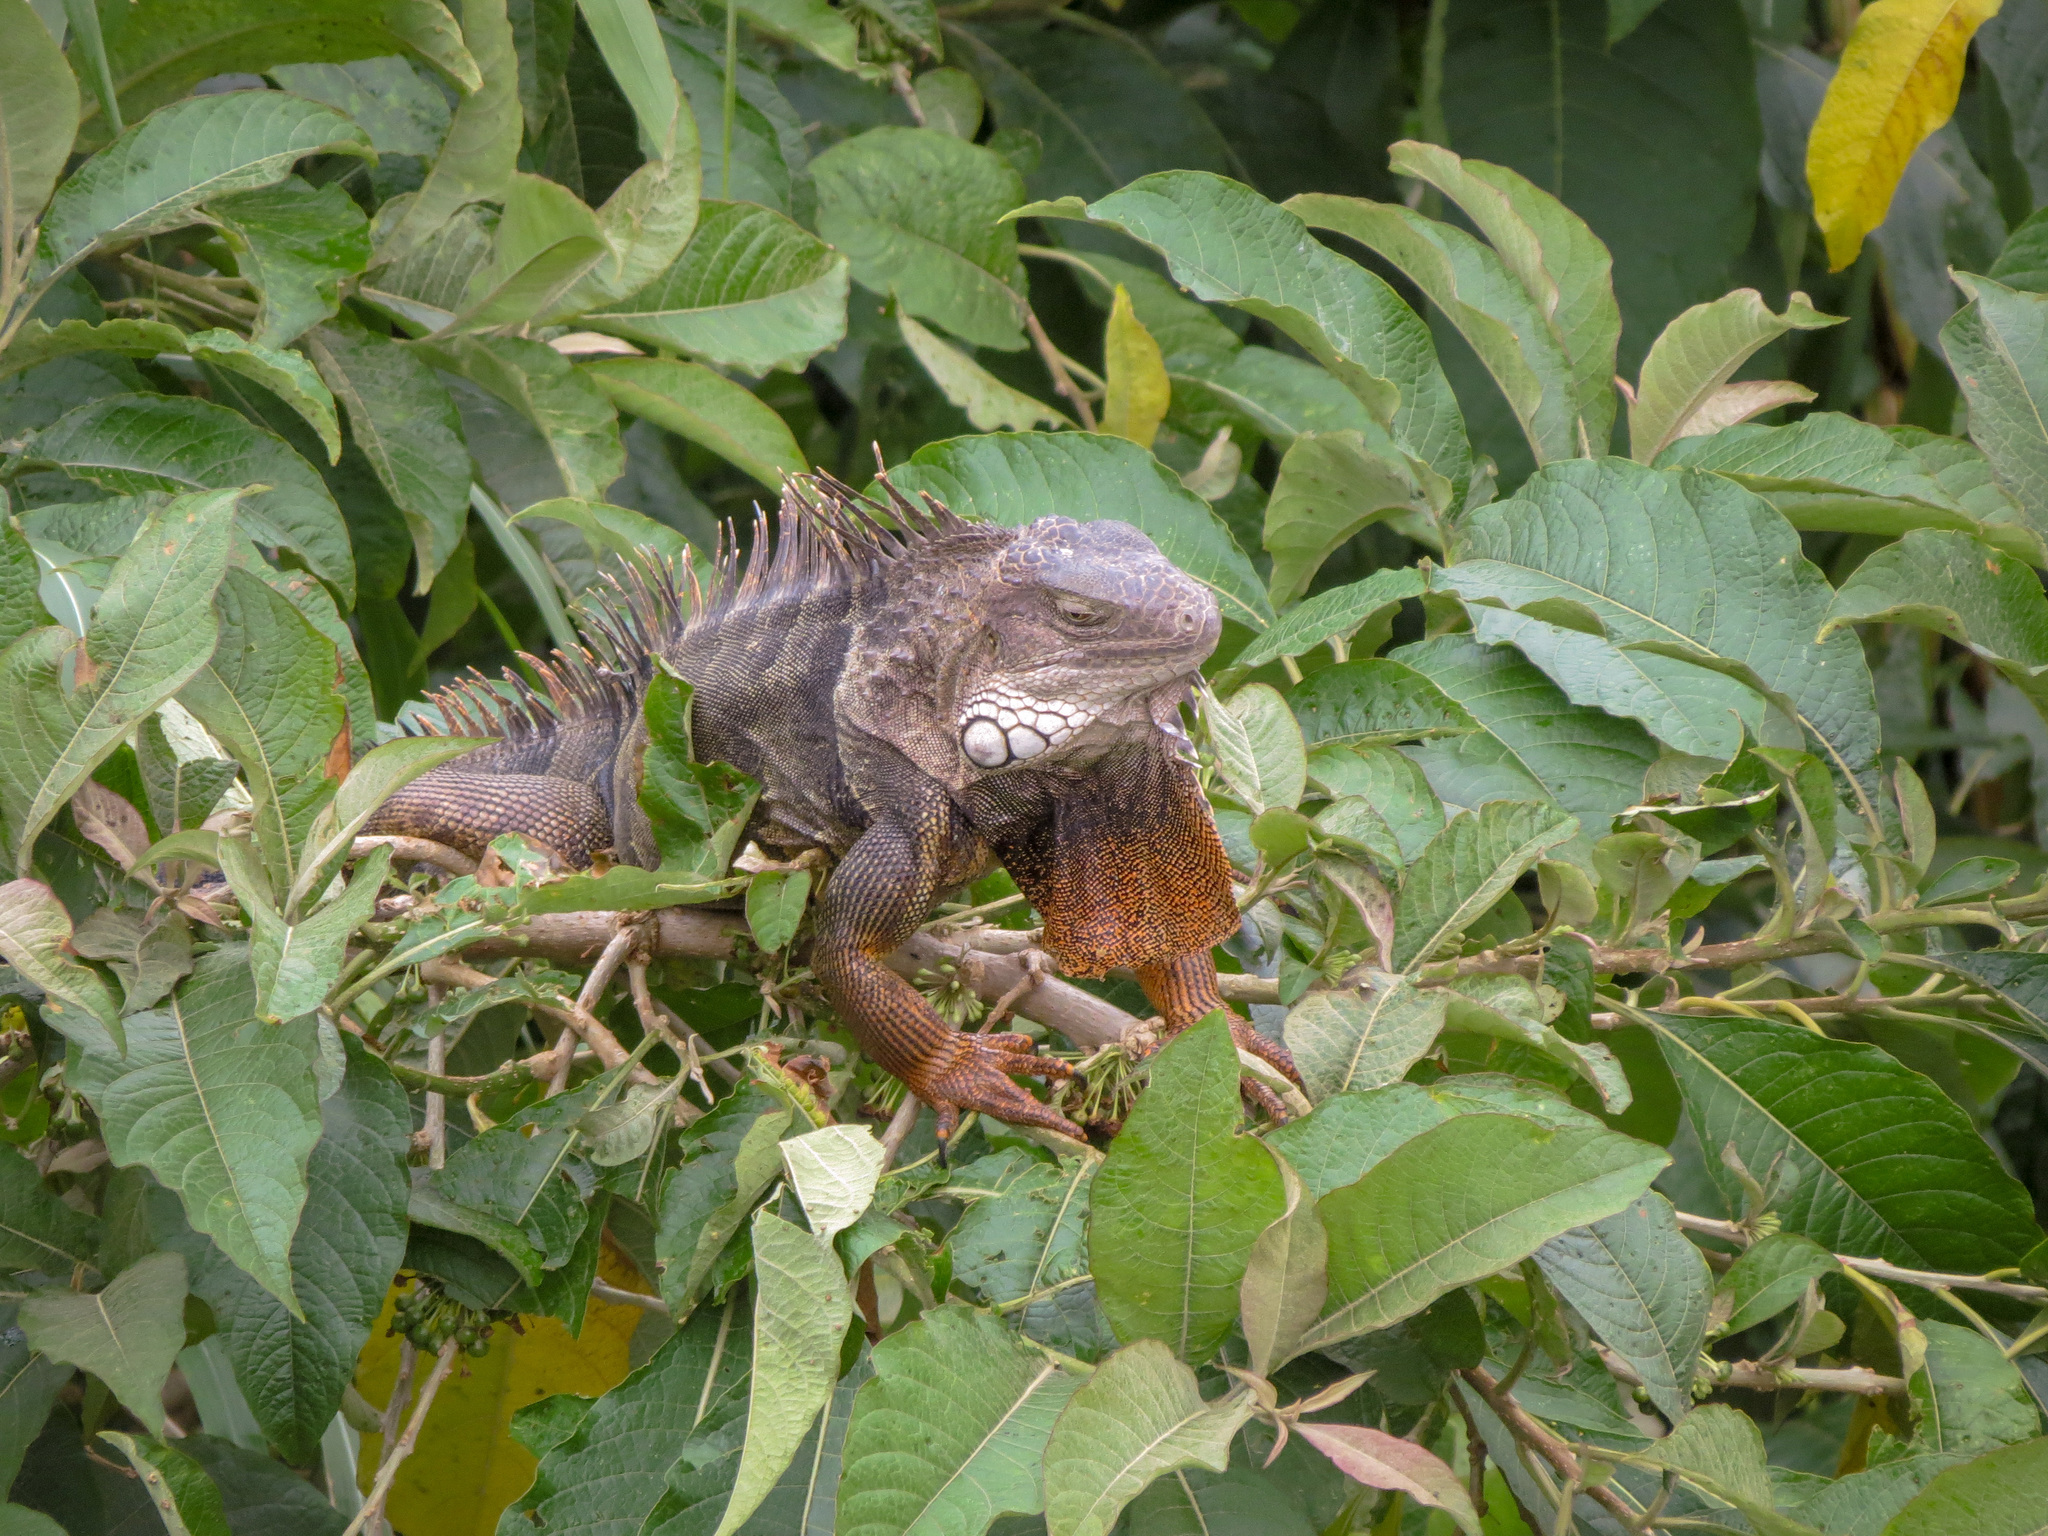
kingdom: Animalia
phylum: Chordata
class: Squamata
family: Iguanidae
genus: Iguana
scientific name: Iguana iguana
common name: Green iguana
